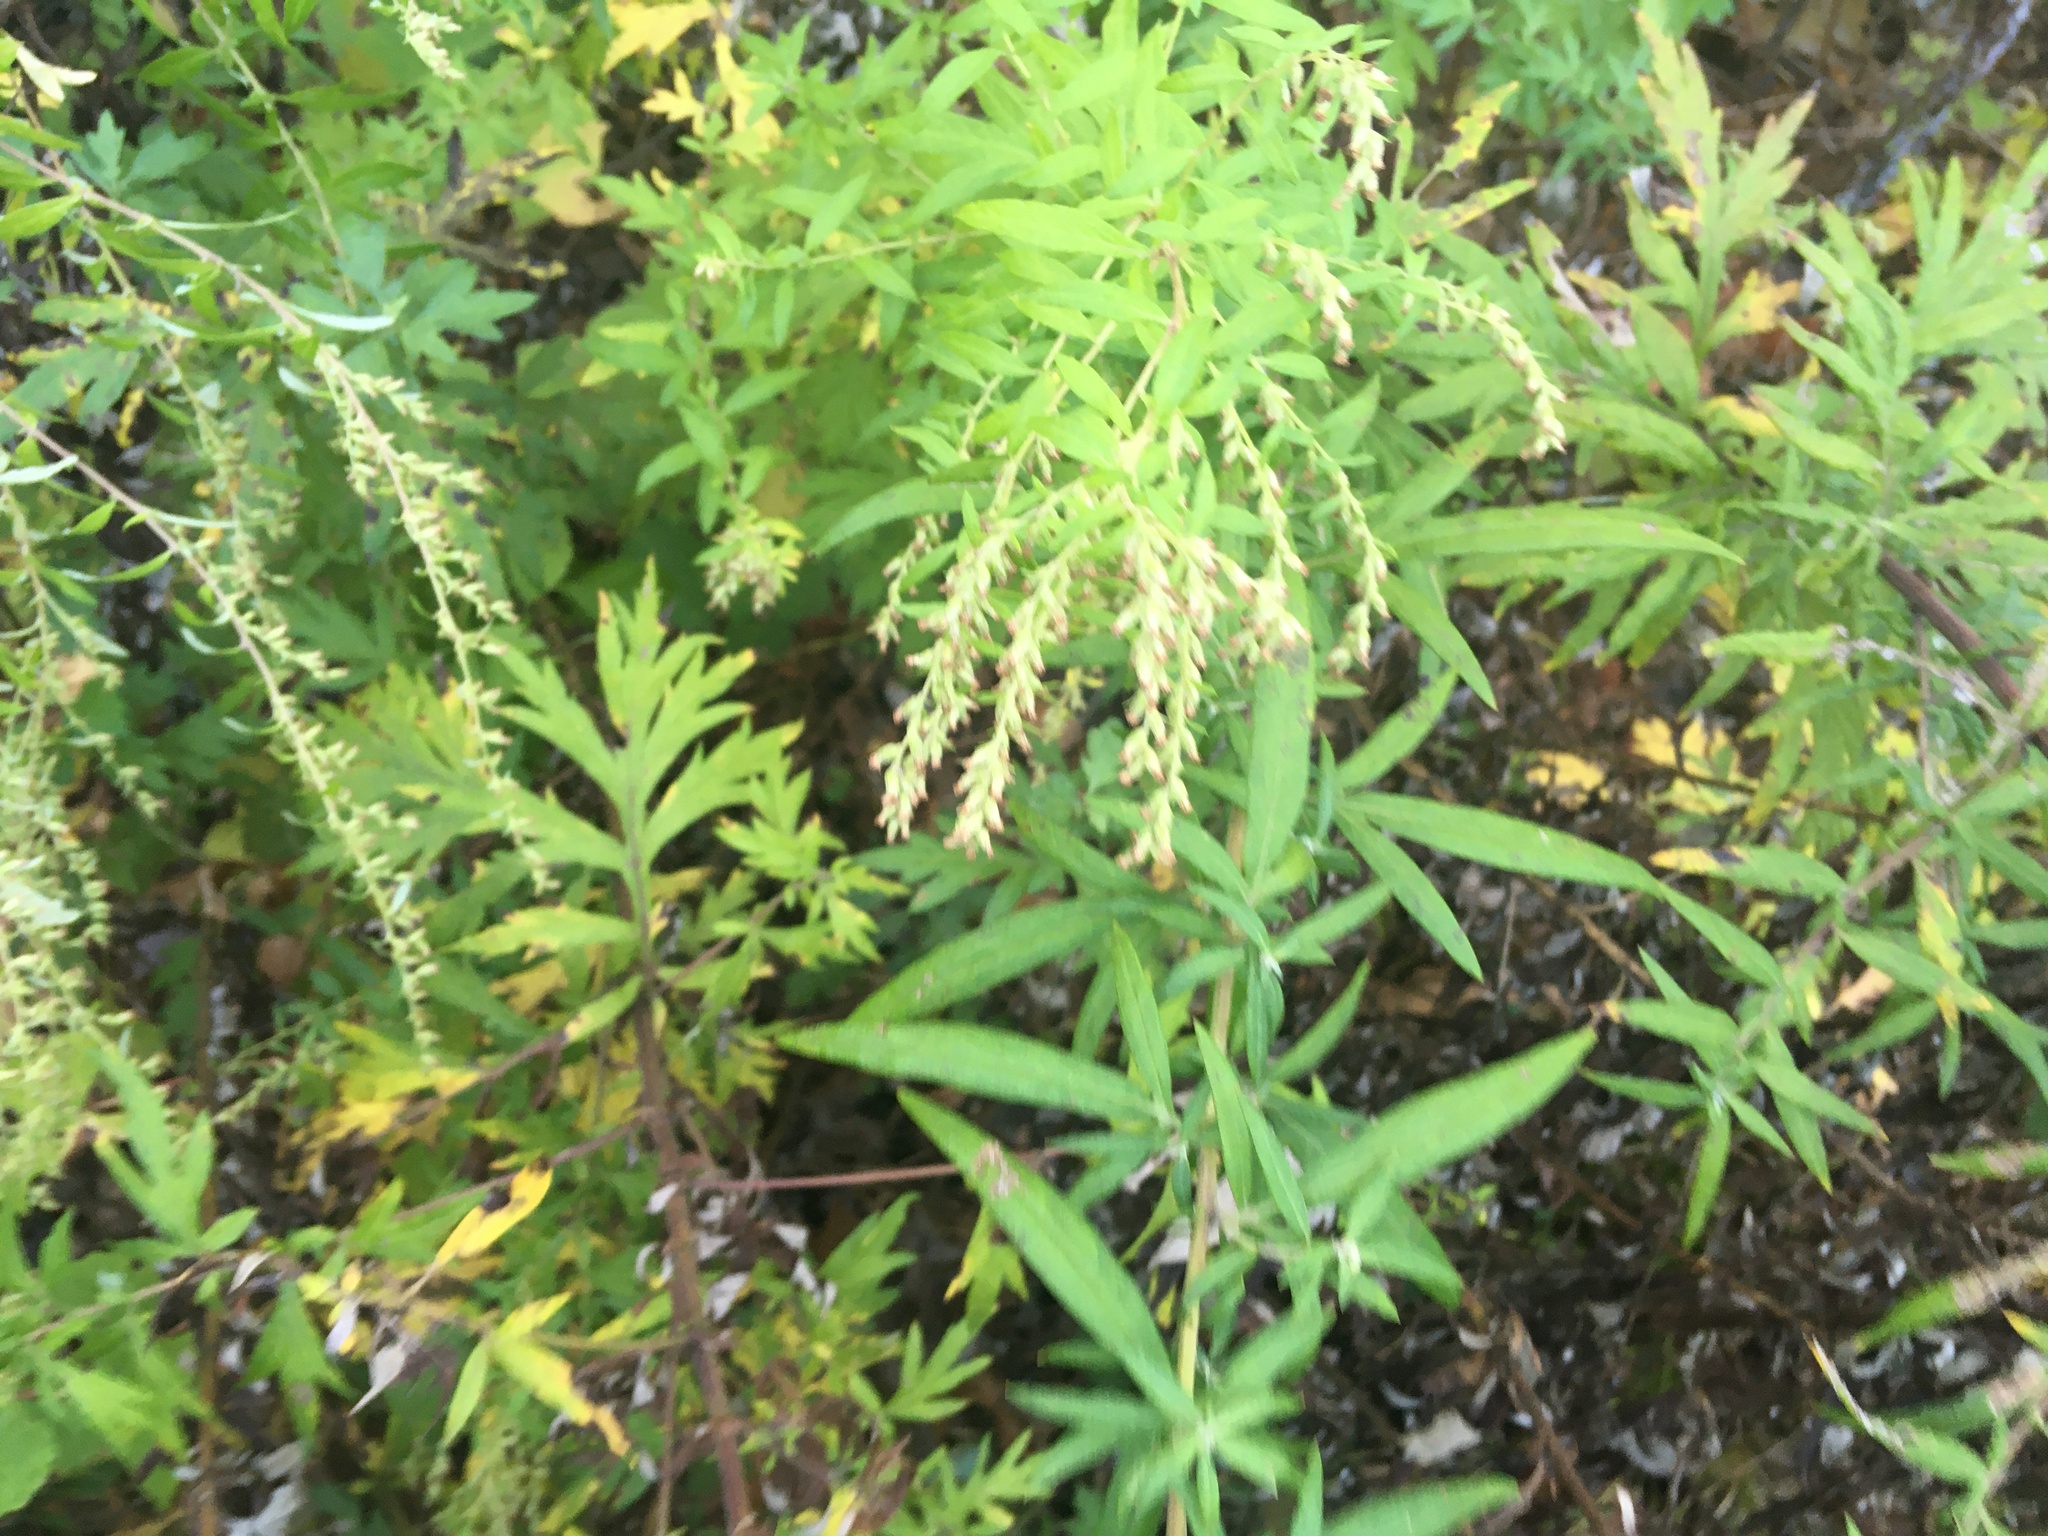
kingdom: Plantae
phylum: Tracheophyta
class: Magnoliopsida
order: Asterales
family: Asteraceae
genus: Artemisia
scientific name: Artemisia vulgaris
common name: Mugwort
